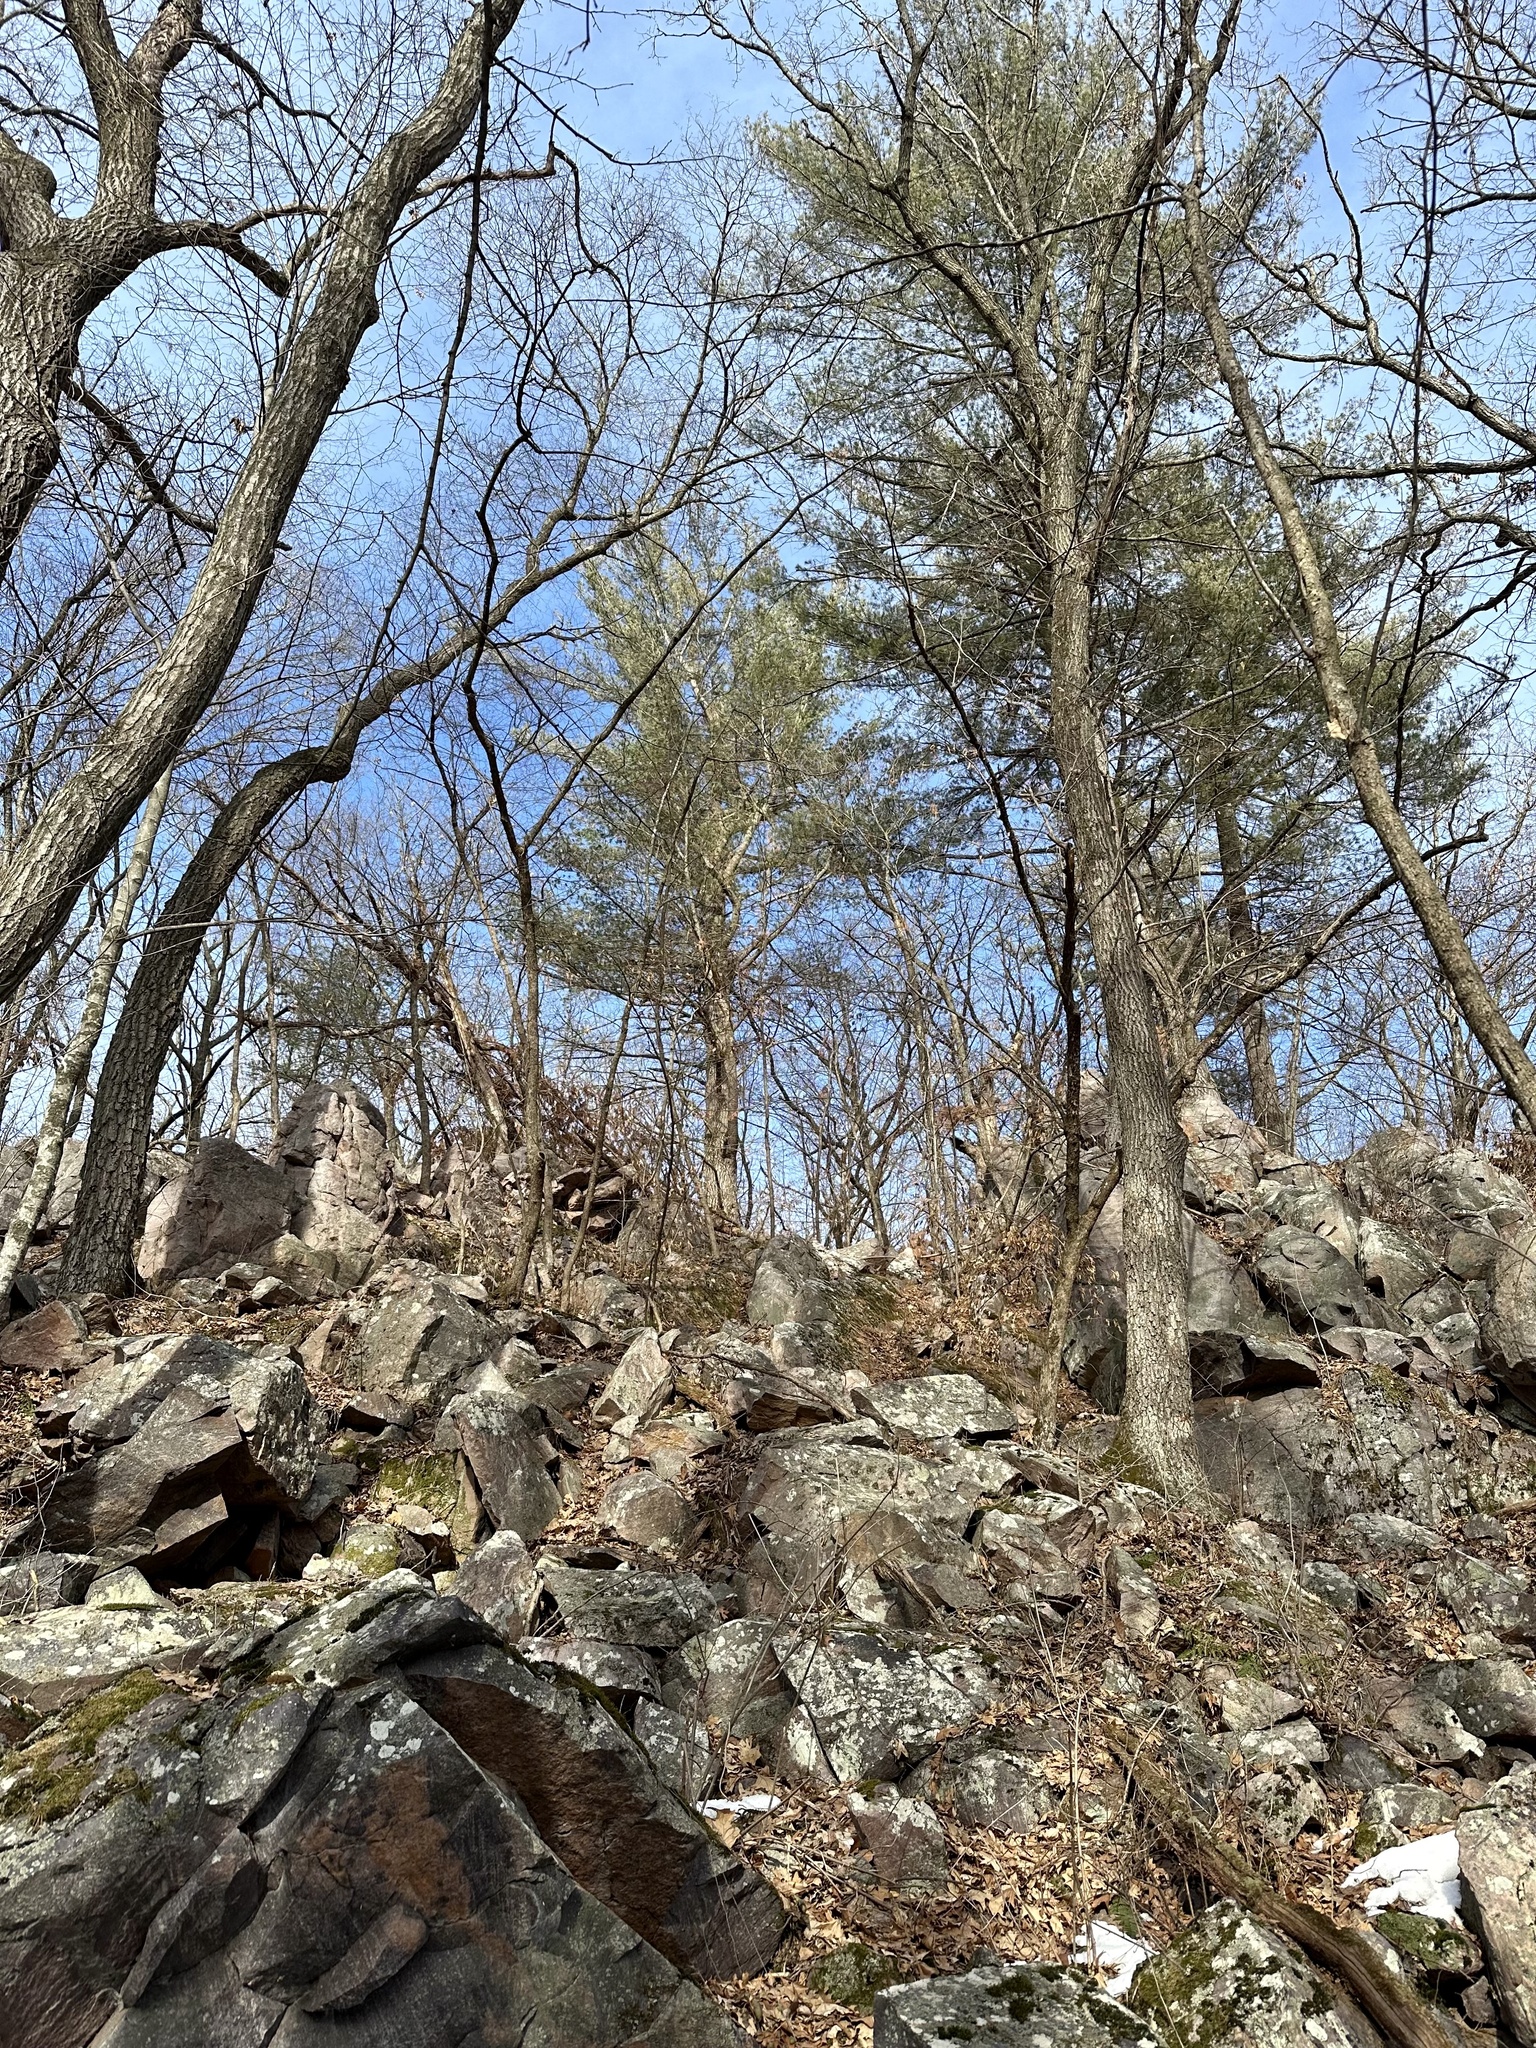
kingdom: Plantae
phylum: Tracheophyta
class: Pinopsida
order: Pinales
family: Pinaceae
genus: Pinus
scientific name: Pinus strobus
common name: Weymouth pine
